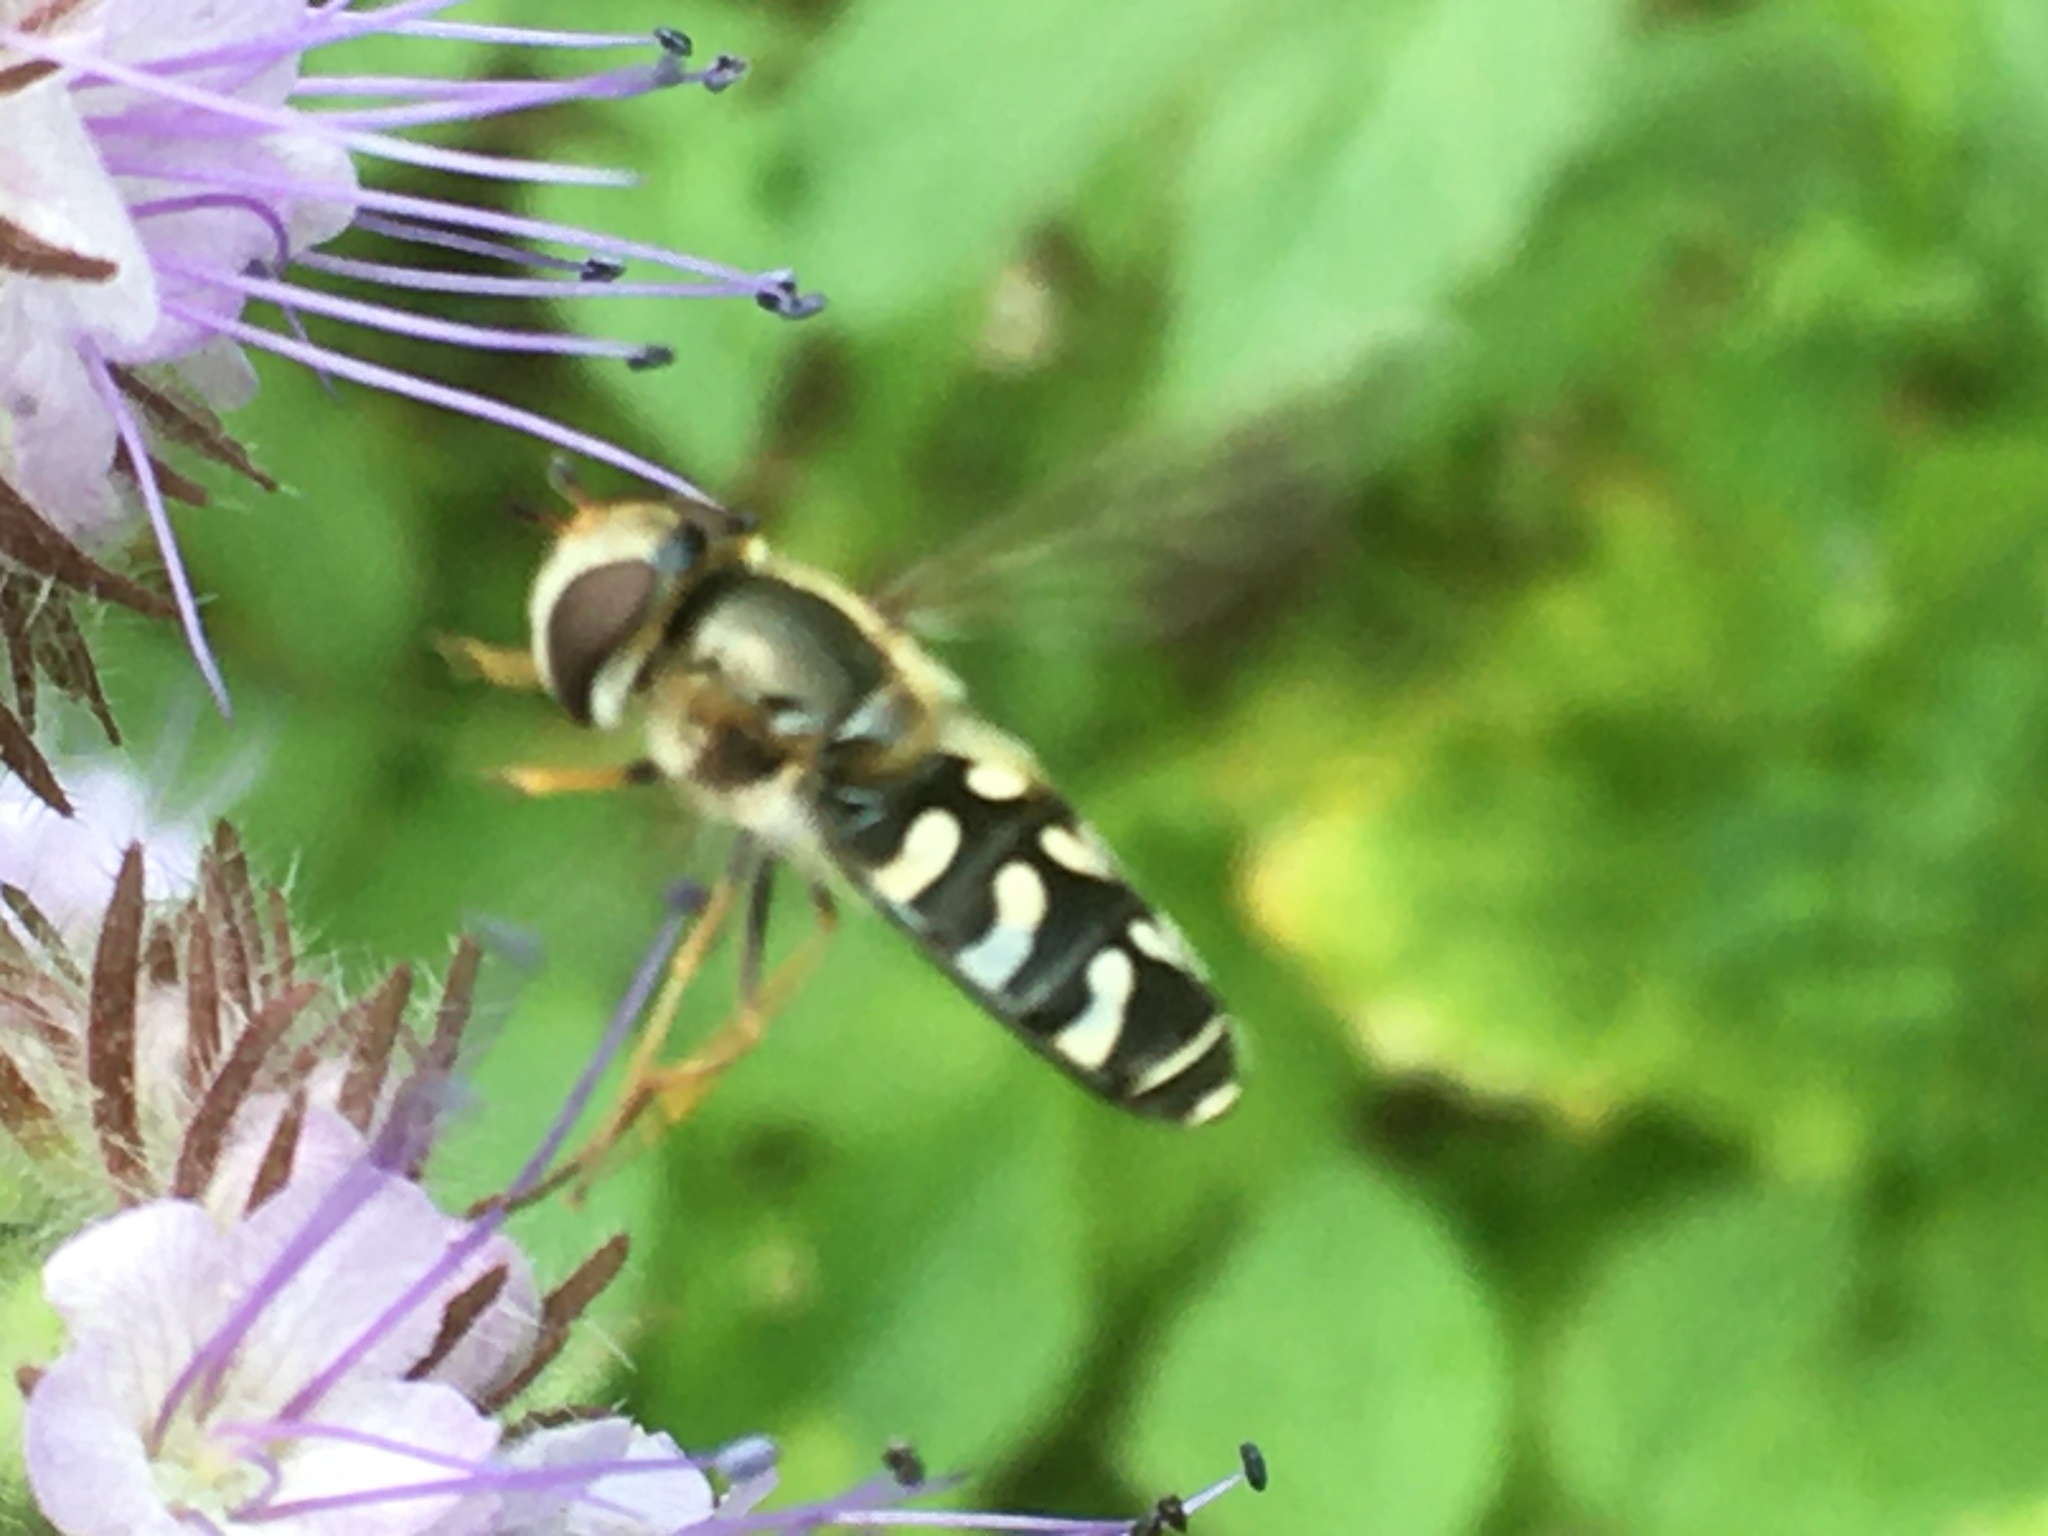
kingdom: Animalia
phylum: Arthropoda
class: Insecta
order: Diptera
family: Syrphidae
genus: Scaeva
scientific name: Scaeva pyrastri
